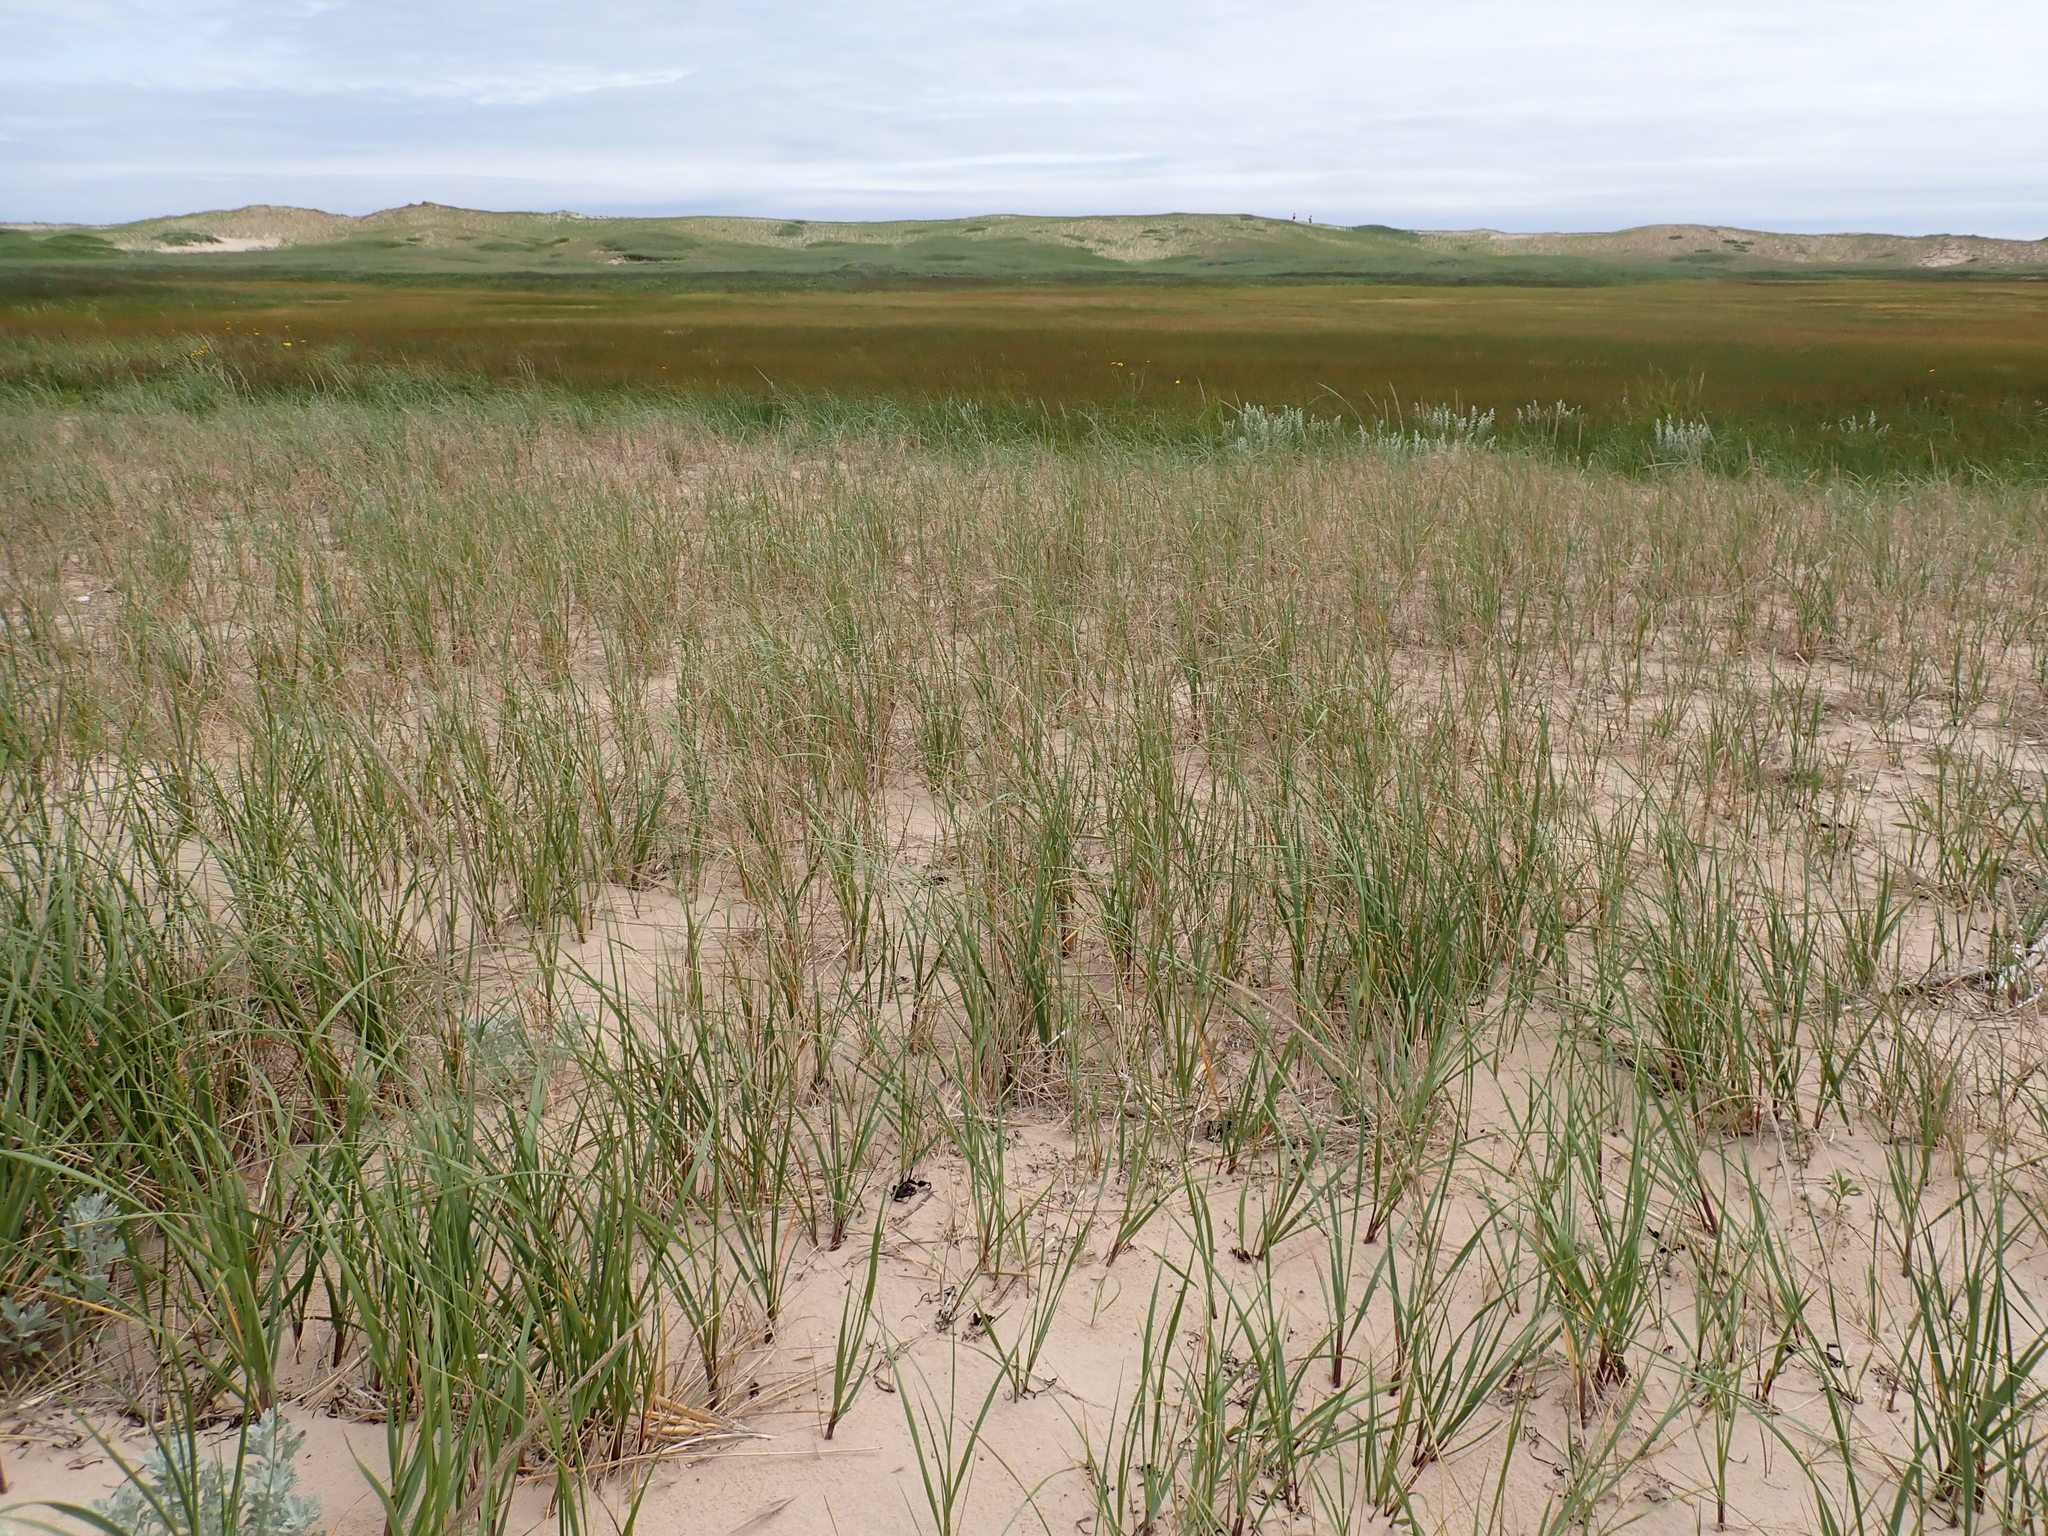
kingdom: Plantae
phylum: Tracheophyta
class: Liliopsida
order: Poales
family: Poaceae
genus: Calamagrostis
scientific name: Calamagrostis breviligulata
